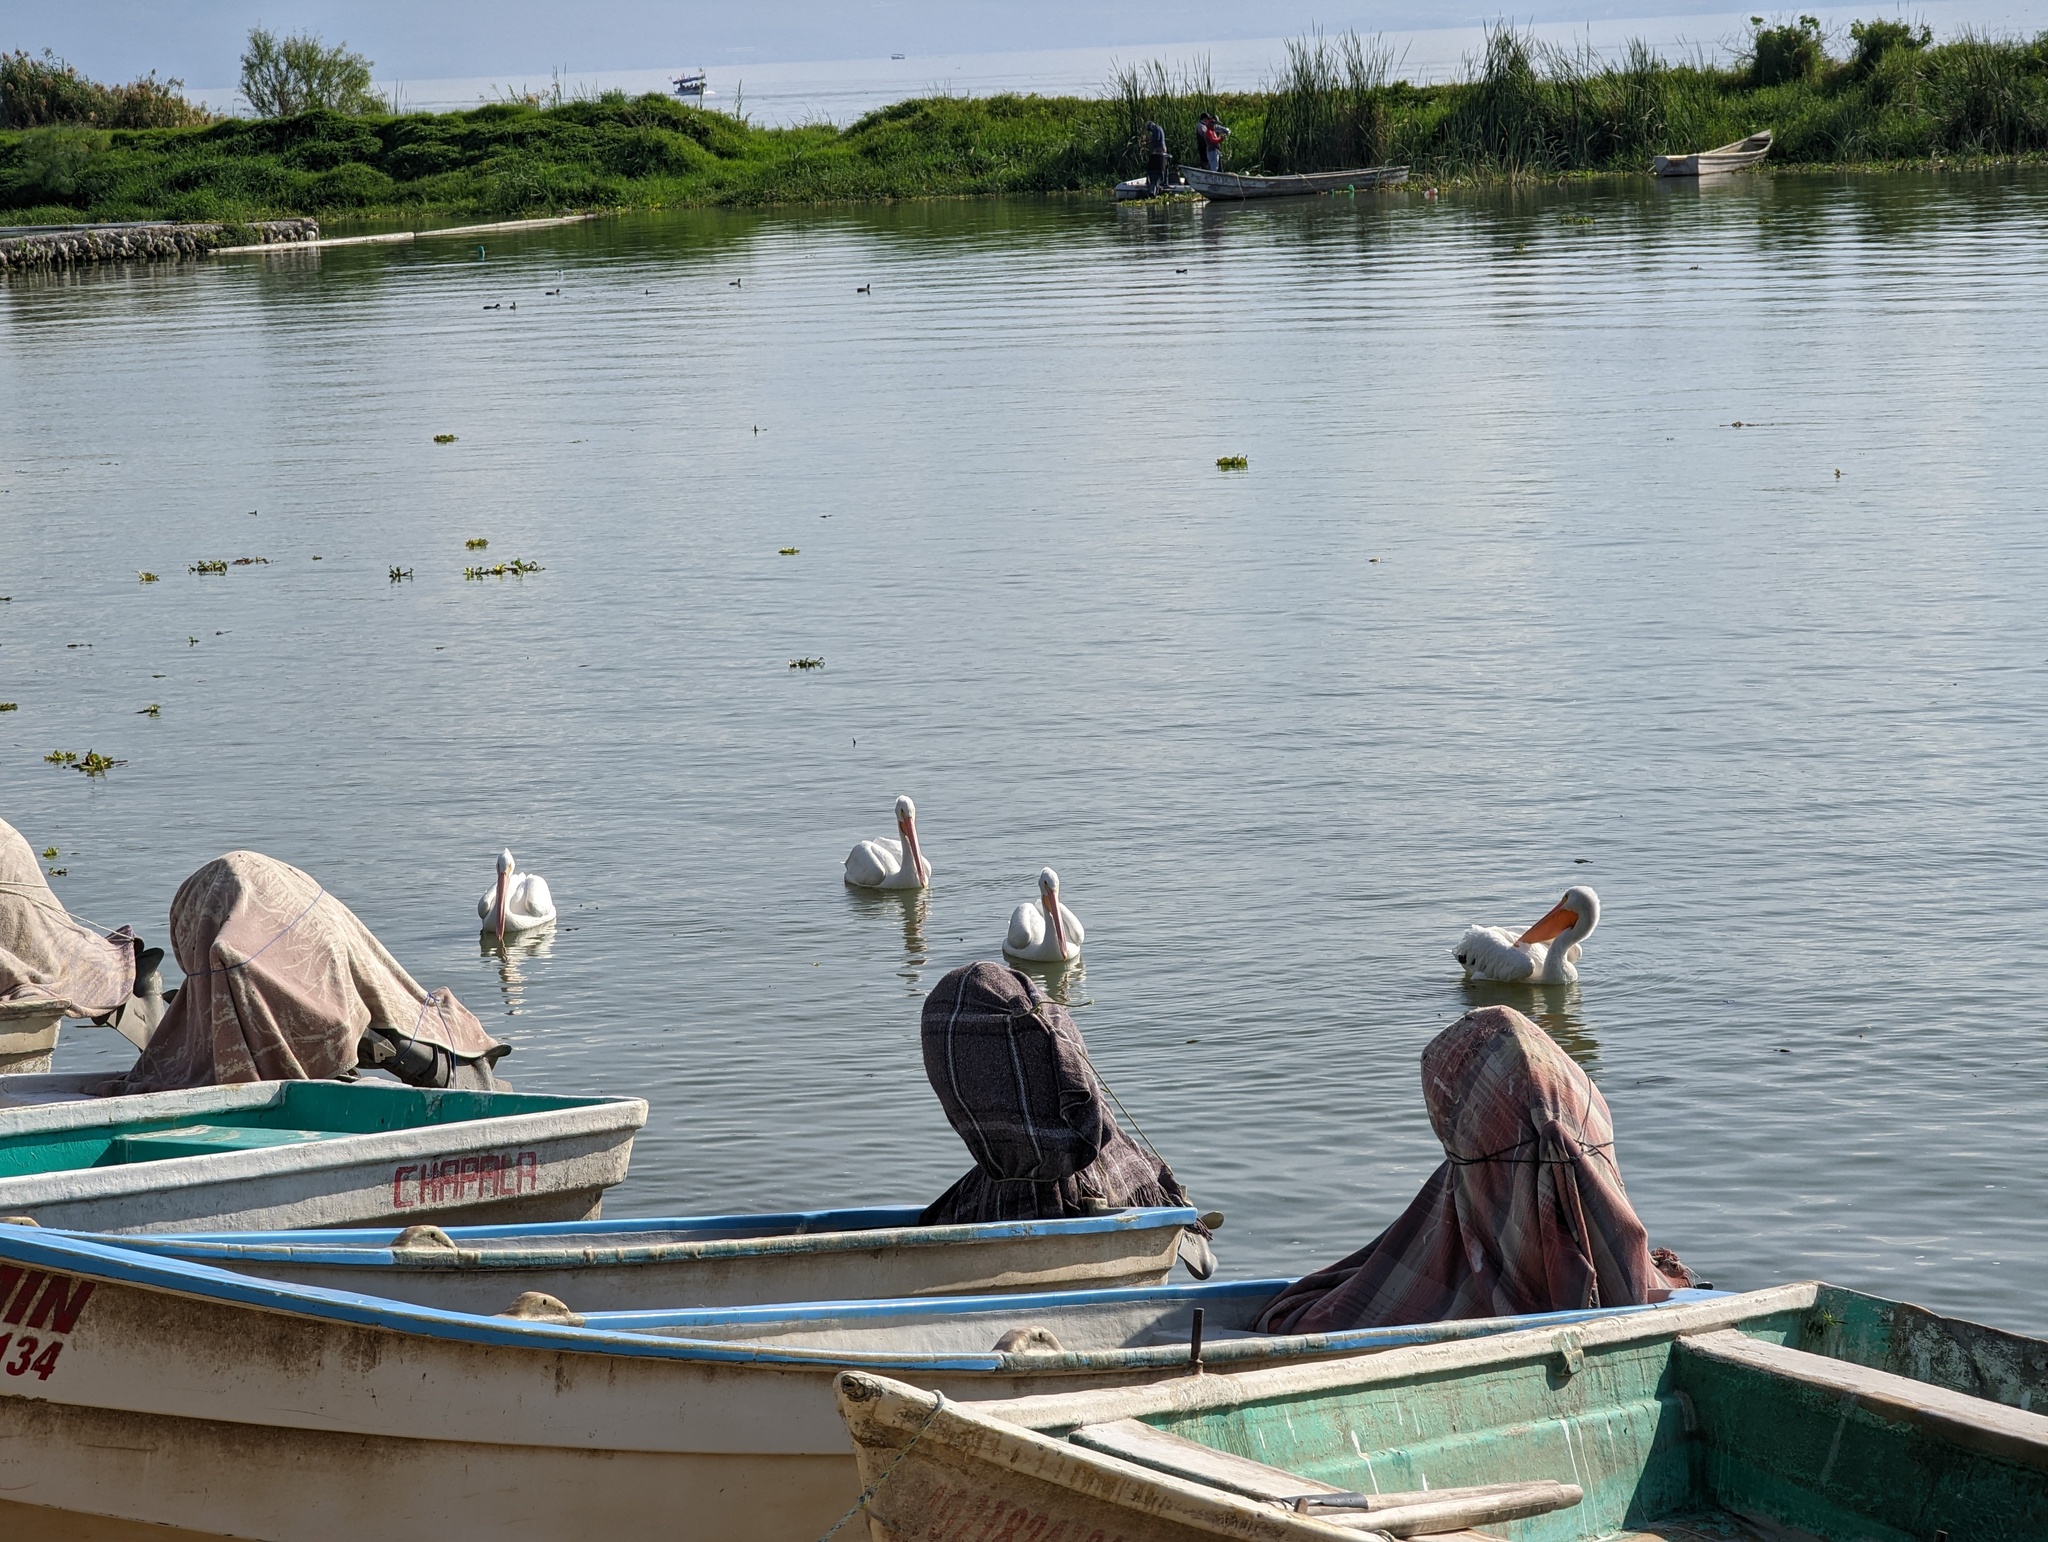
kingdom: Animalia
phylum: Chordata
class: Aves
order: Pelecaniformes
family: Pelecanidae
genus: Pelecanus
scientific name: Pelecanus erythrorhynchos
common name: American white pelican
